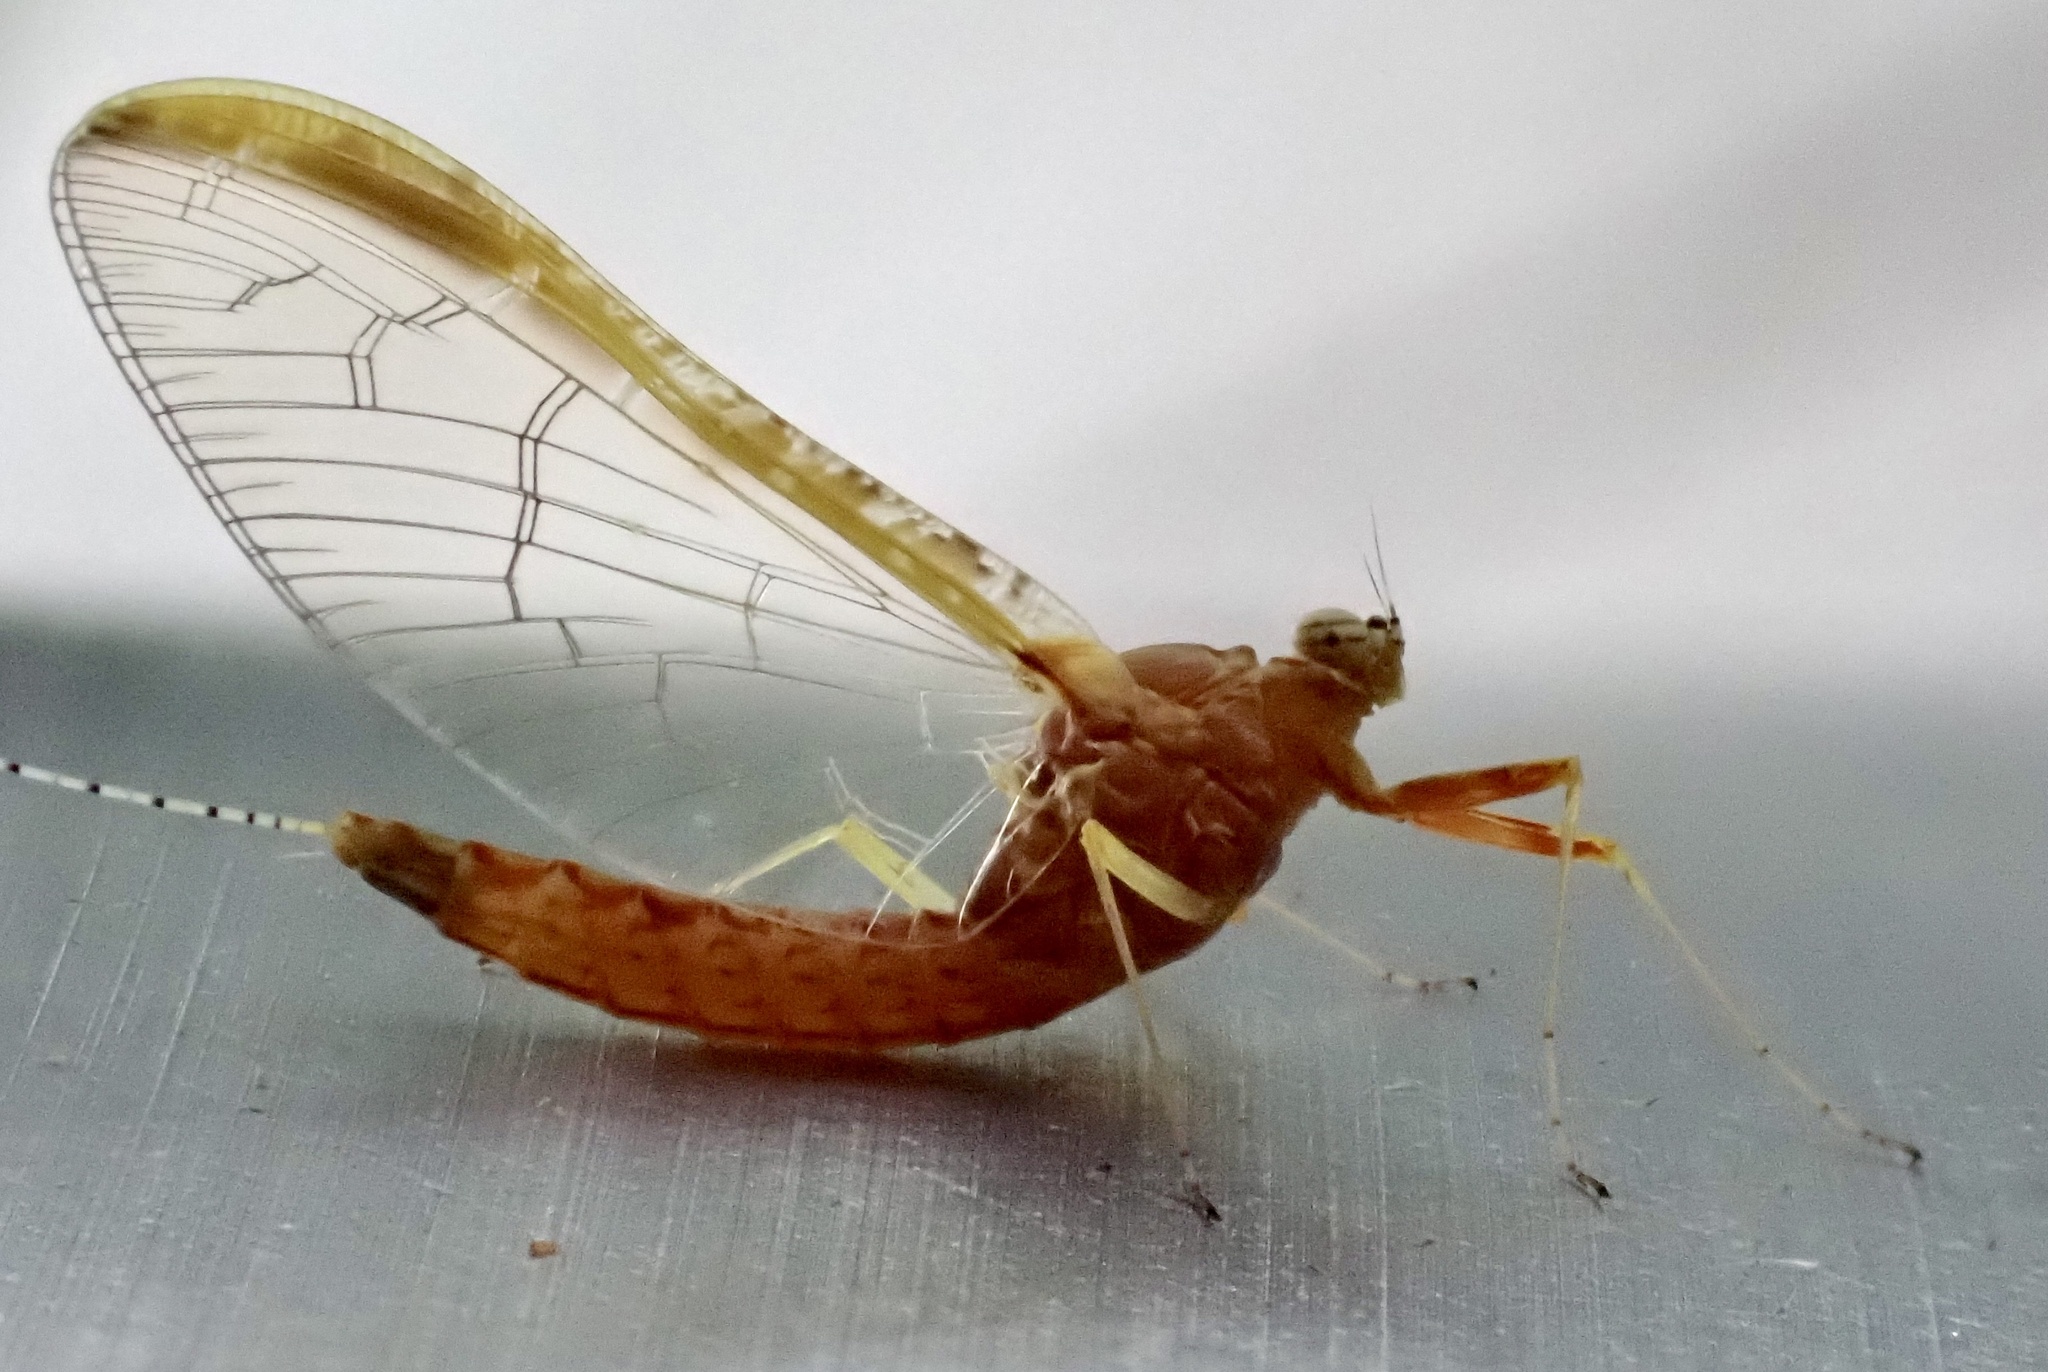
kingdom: Animalia
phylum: Arthropoda
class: Insecta
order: Ephemeroptera
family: Baetidae
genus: Cloeon
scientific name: Cloeon dipterum
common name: Pond olive
